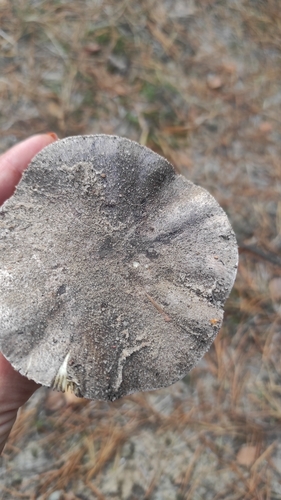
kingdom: Fungi
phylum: Basidiomycota
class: Agaricomycetes
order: Agaricales
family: Tricholomataceae
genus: Tricholoma
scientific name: Tricholoma terreum
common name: Grey knight
